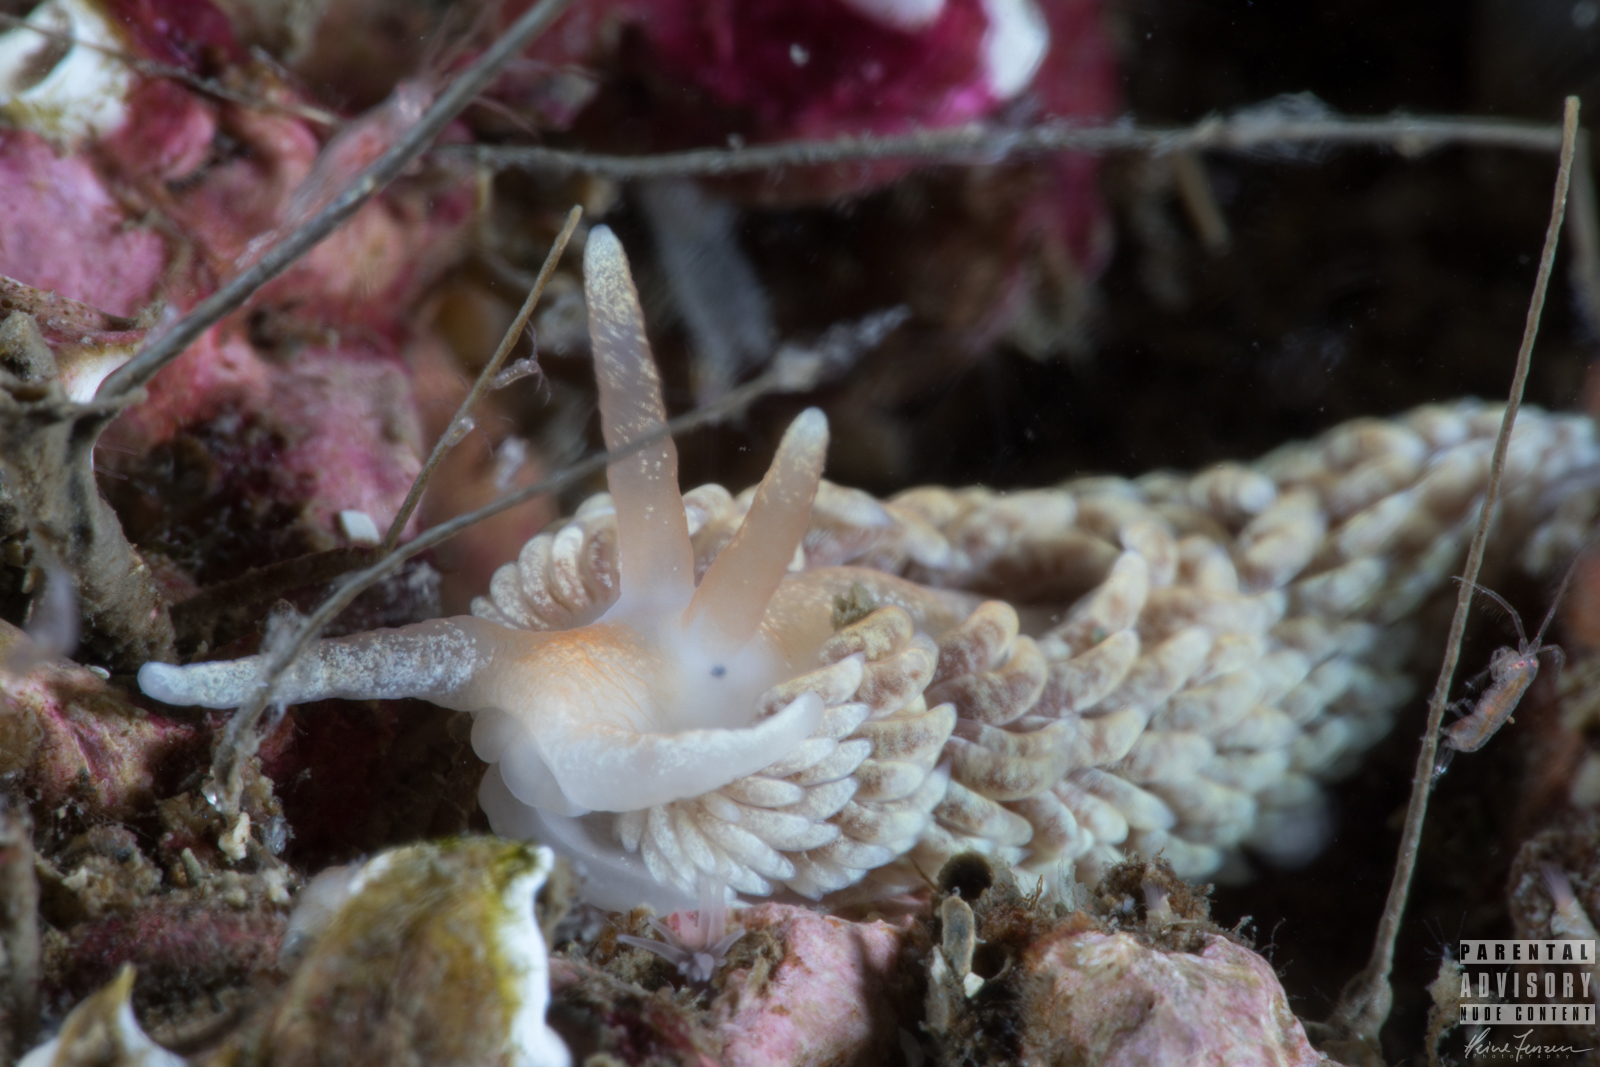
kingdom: Animalia
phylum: Mollusca
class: Gastropoda
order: Nudibranchia
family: Aeolidiidae
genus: Aeolidiella
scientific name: Aeolidiella glauca
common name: Orange-brown aeolid
